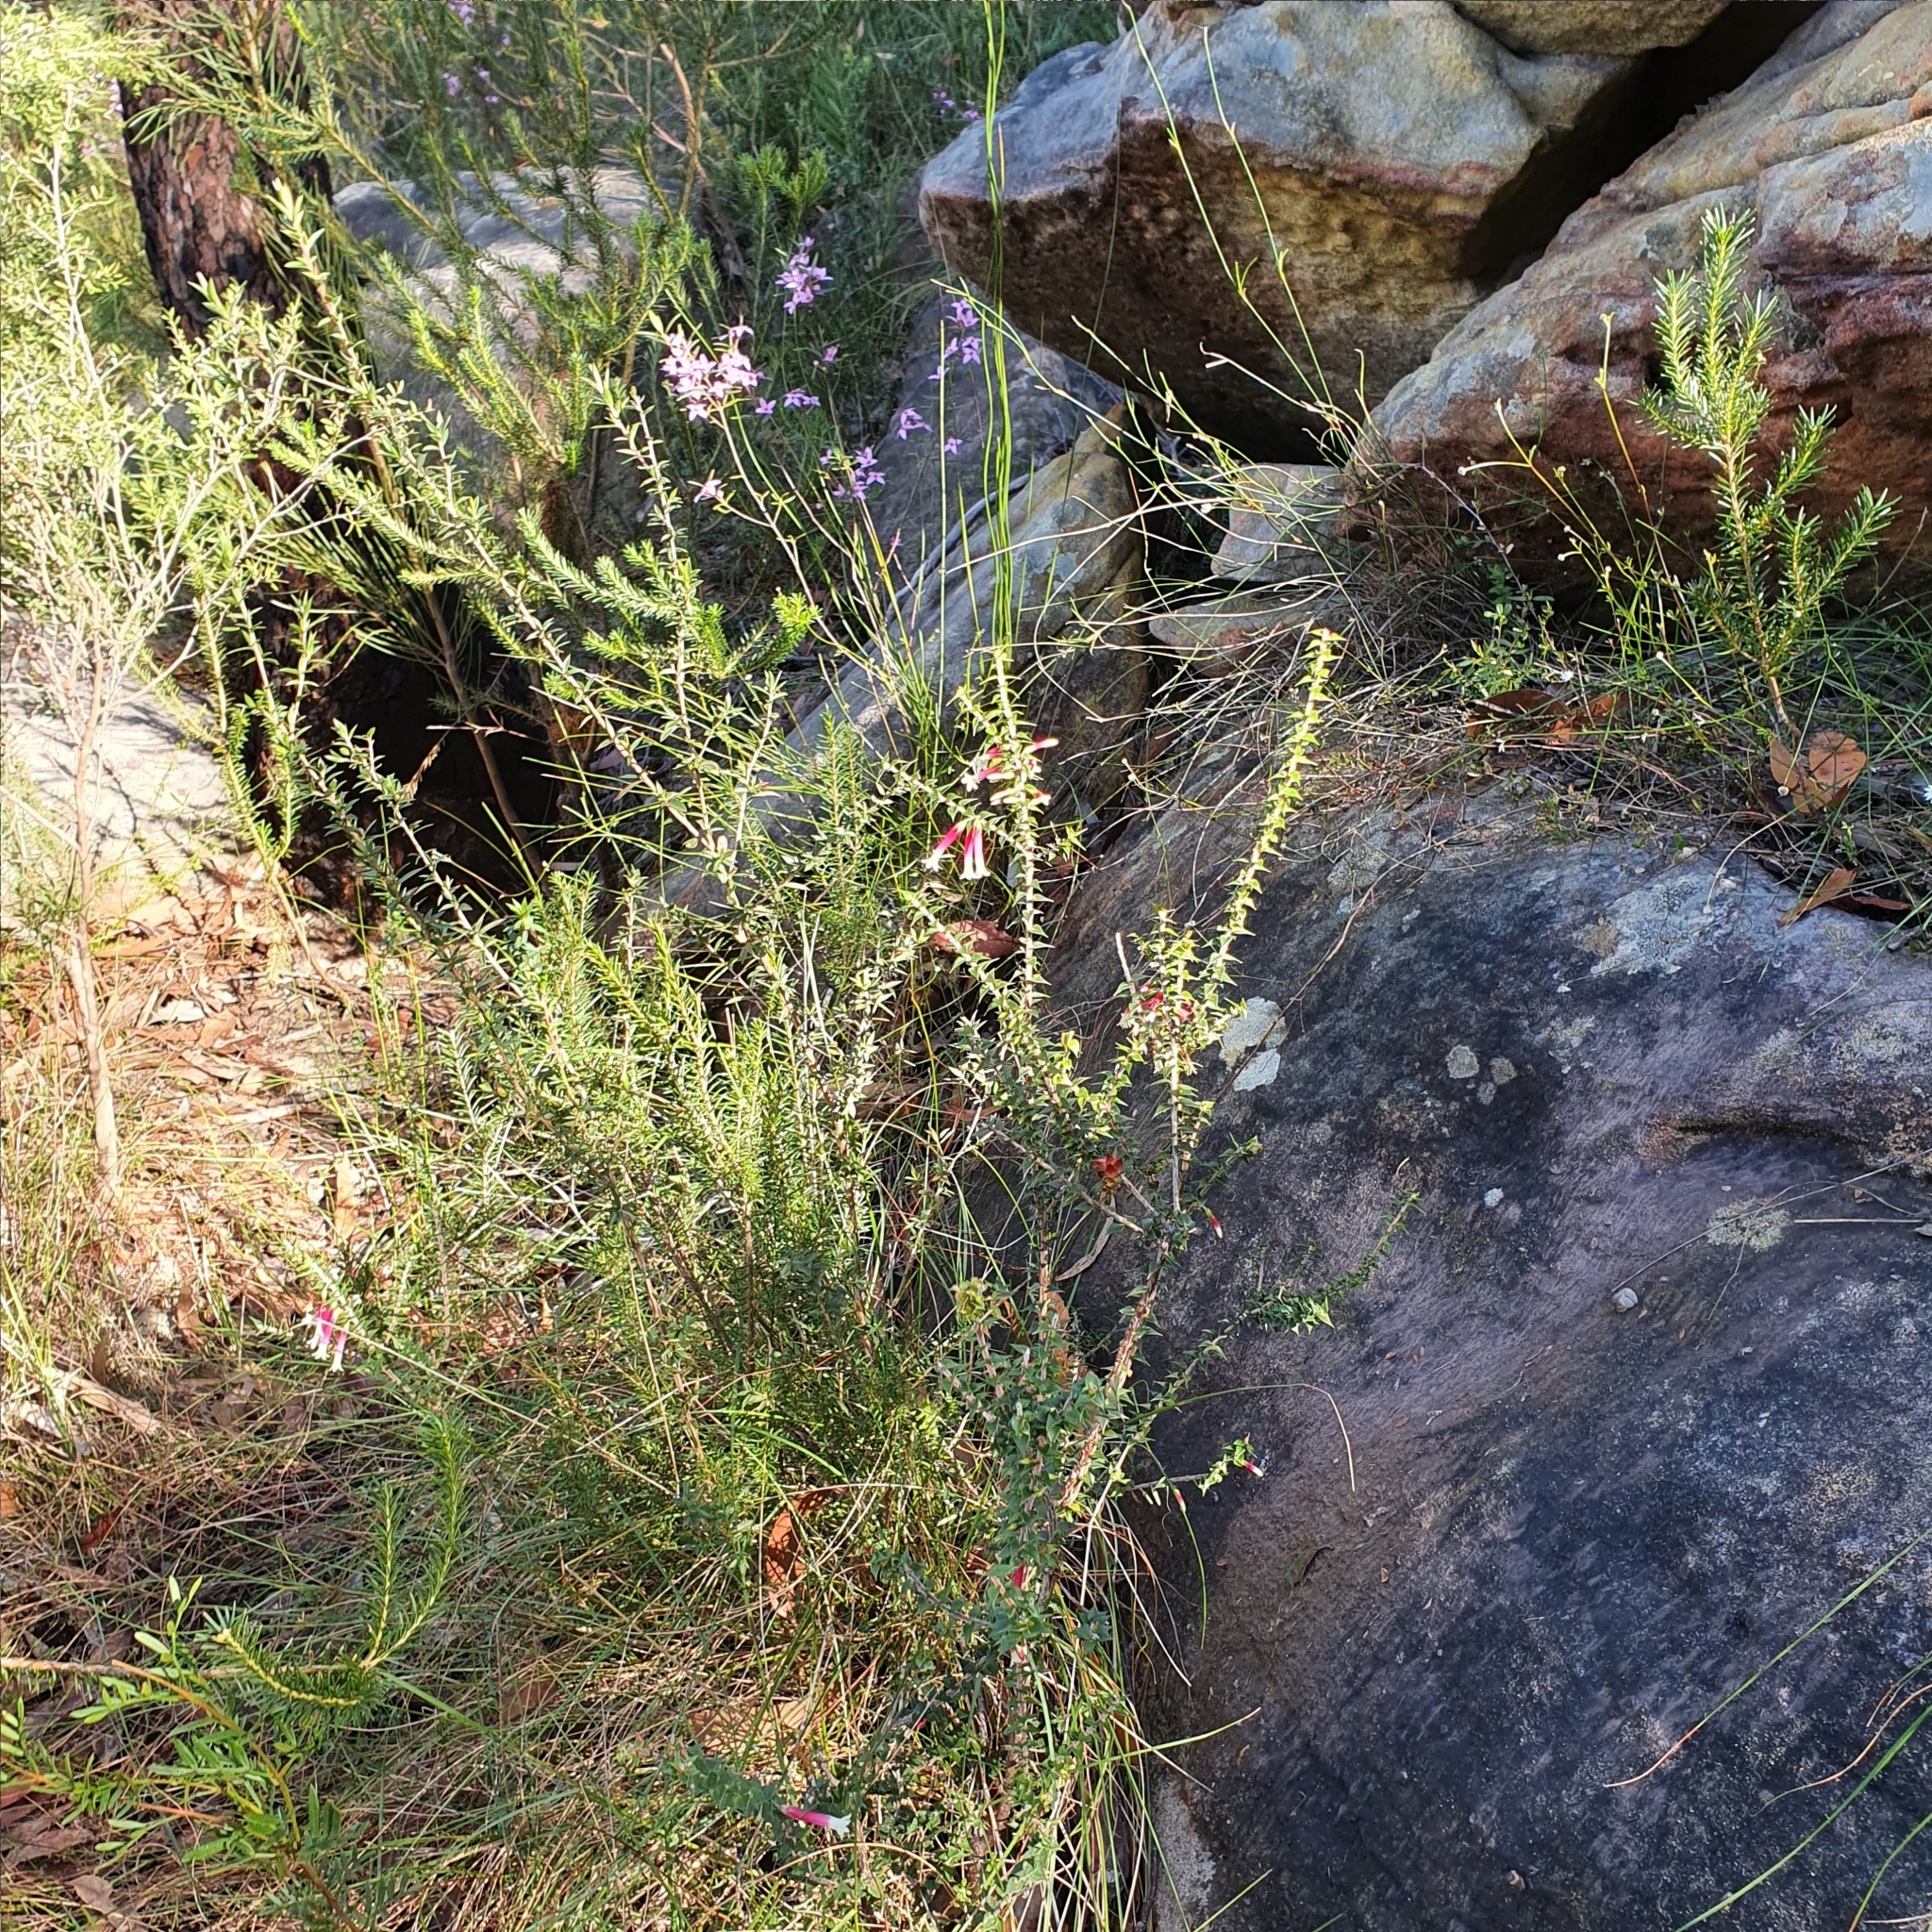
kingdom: Plantae
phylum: Tracheophyta
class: Magnoliopsida
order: Ericales
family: Ericaceae
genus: Epacris
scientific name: Epacris longiflora
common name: Fuchsia-heath
